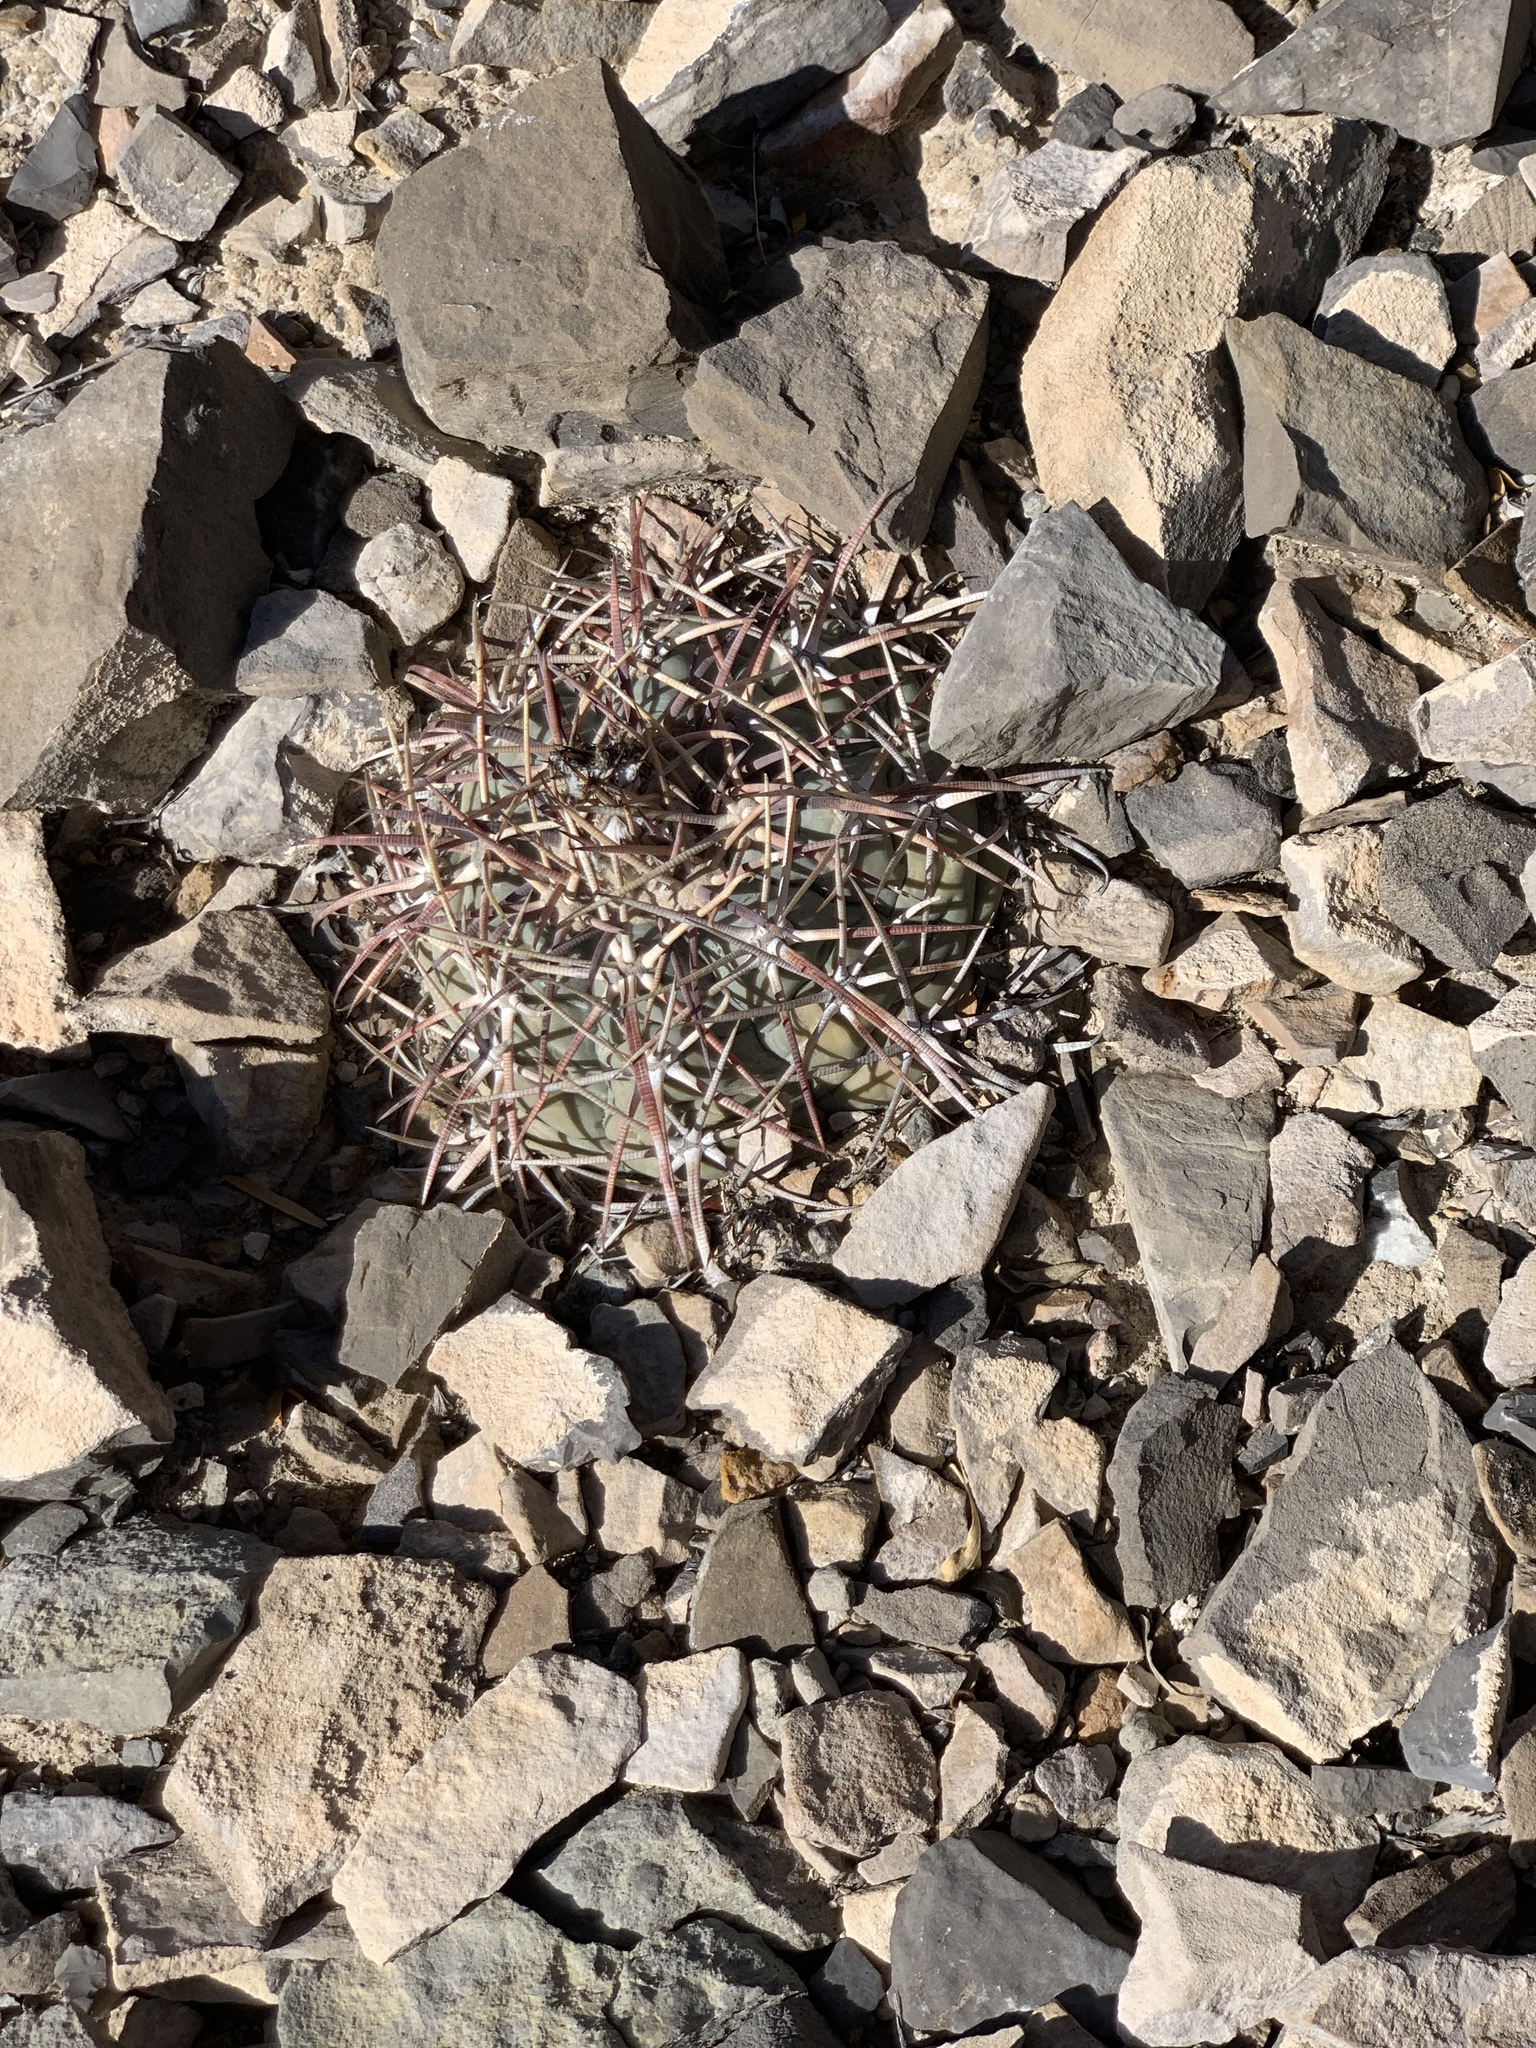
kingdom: Plantae
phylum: Tracheophyta
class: Magnoliopsida
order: Caryophyllales
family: Cactaceae
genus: Echinocactus
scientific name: Echinocactus horizonthalonius
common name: Devilshead
